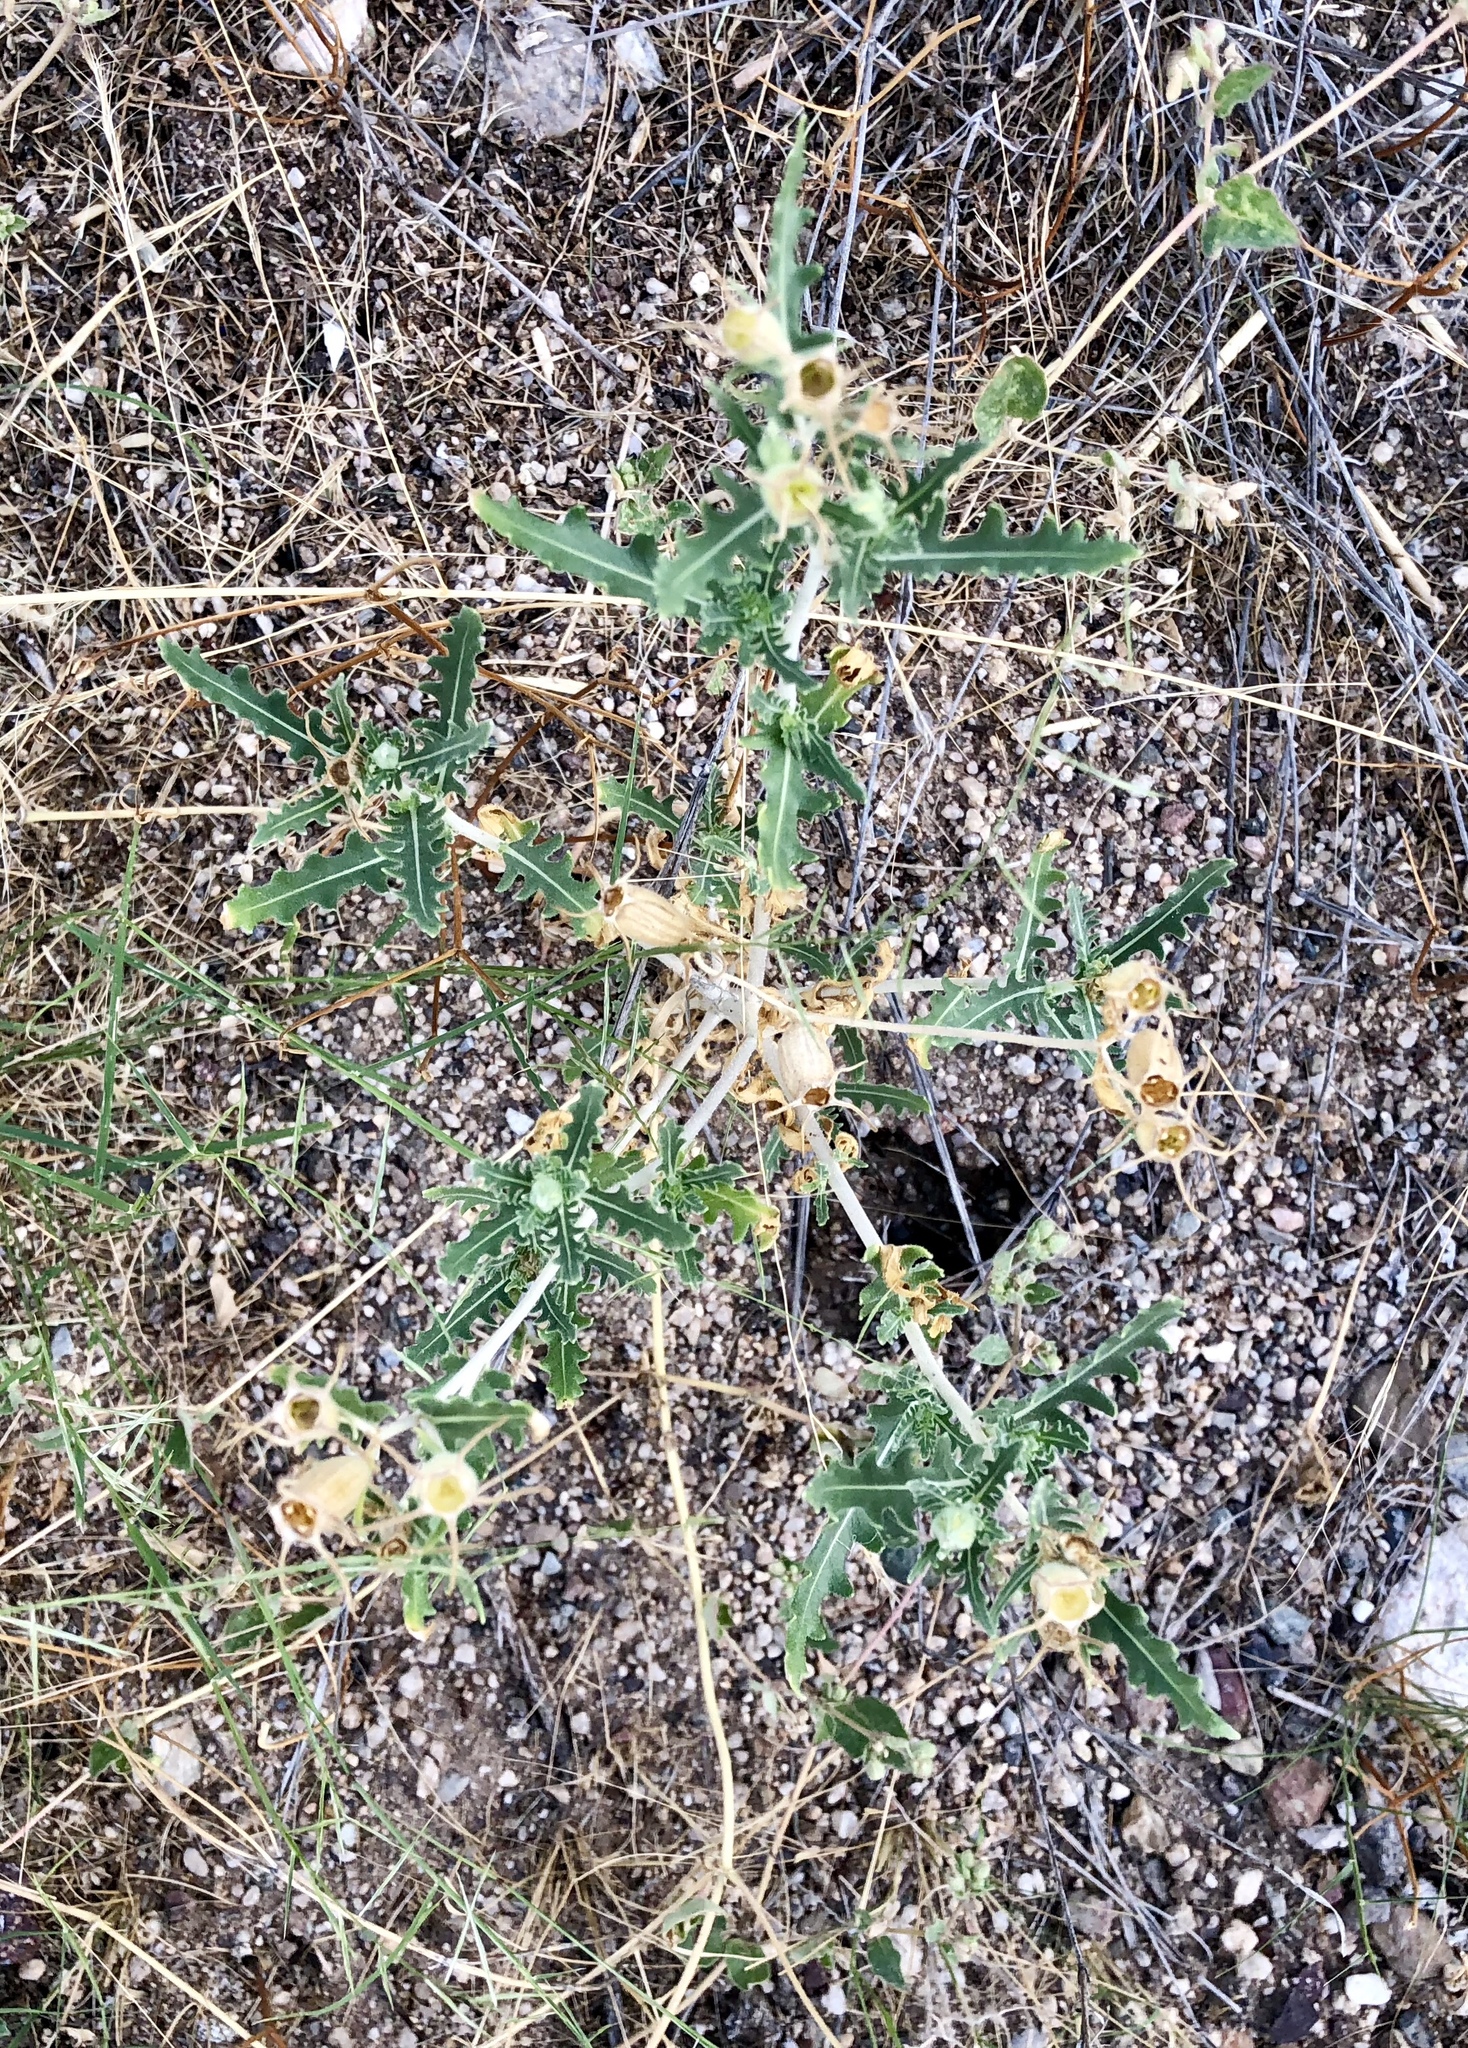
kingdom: Plantae
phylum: Tracheophyta
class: Magnoliopsida
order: Cornales
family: Loasaceae
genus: Mentzelia
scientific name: Mentzelia longiloba
